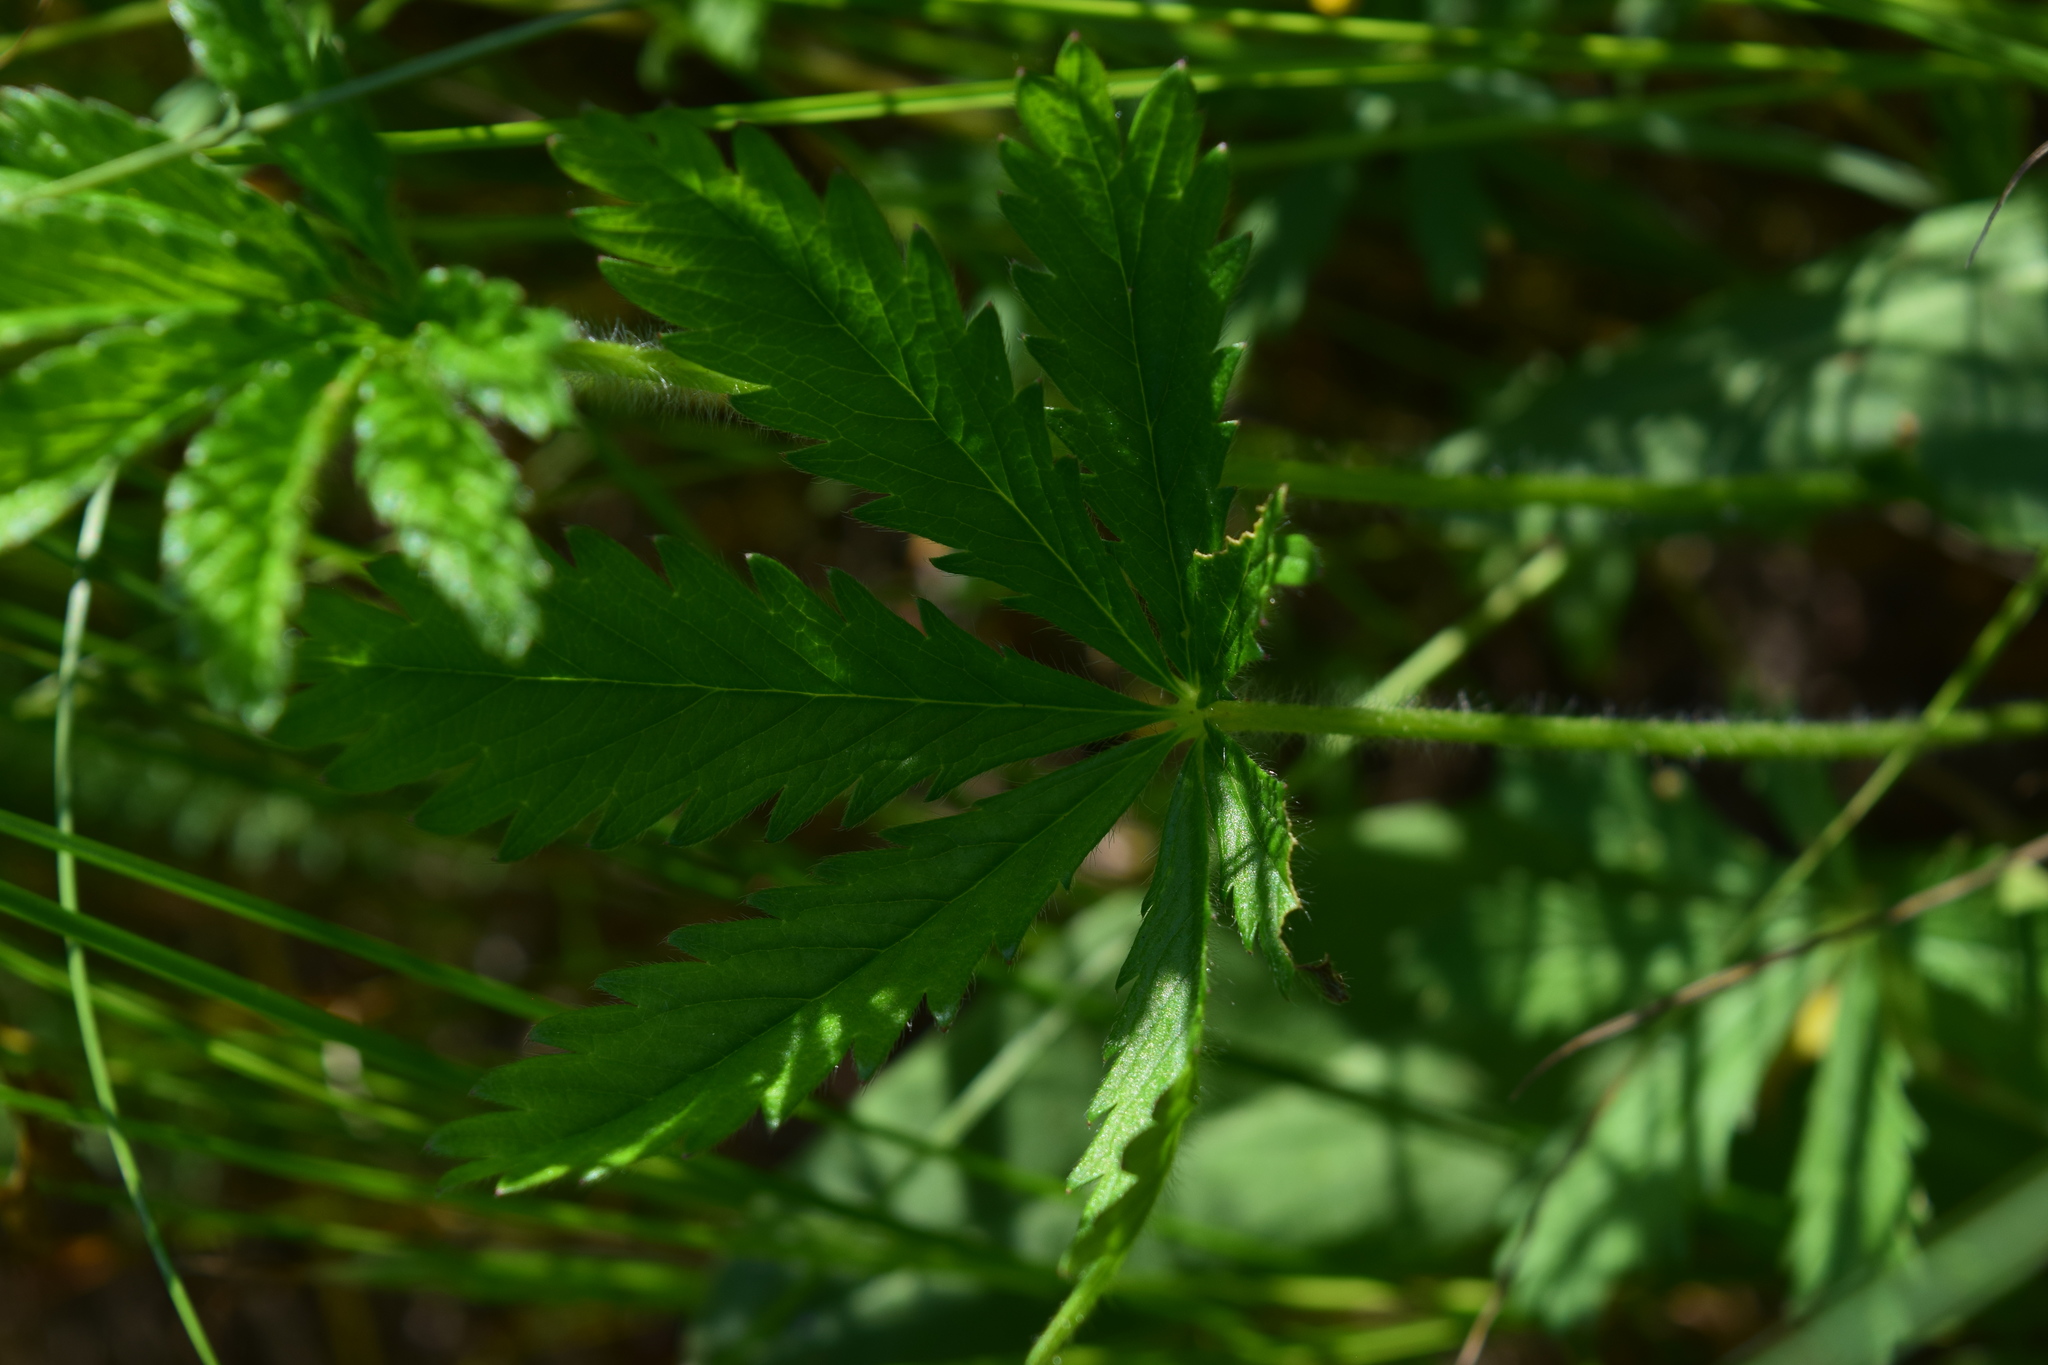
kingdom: Plantae
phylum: Tracheophyta
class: Magnoliopsida
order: Rosales
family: Rosaceae
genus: Potentilla
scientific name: Potentilla thuringiaca
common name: European cinquefoil
